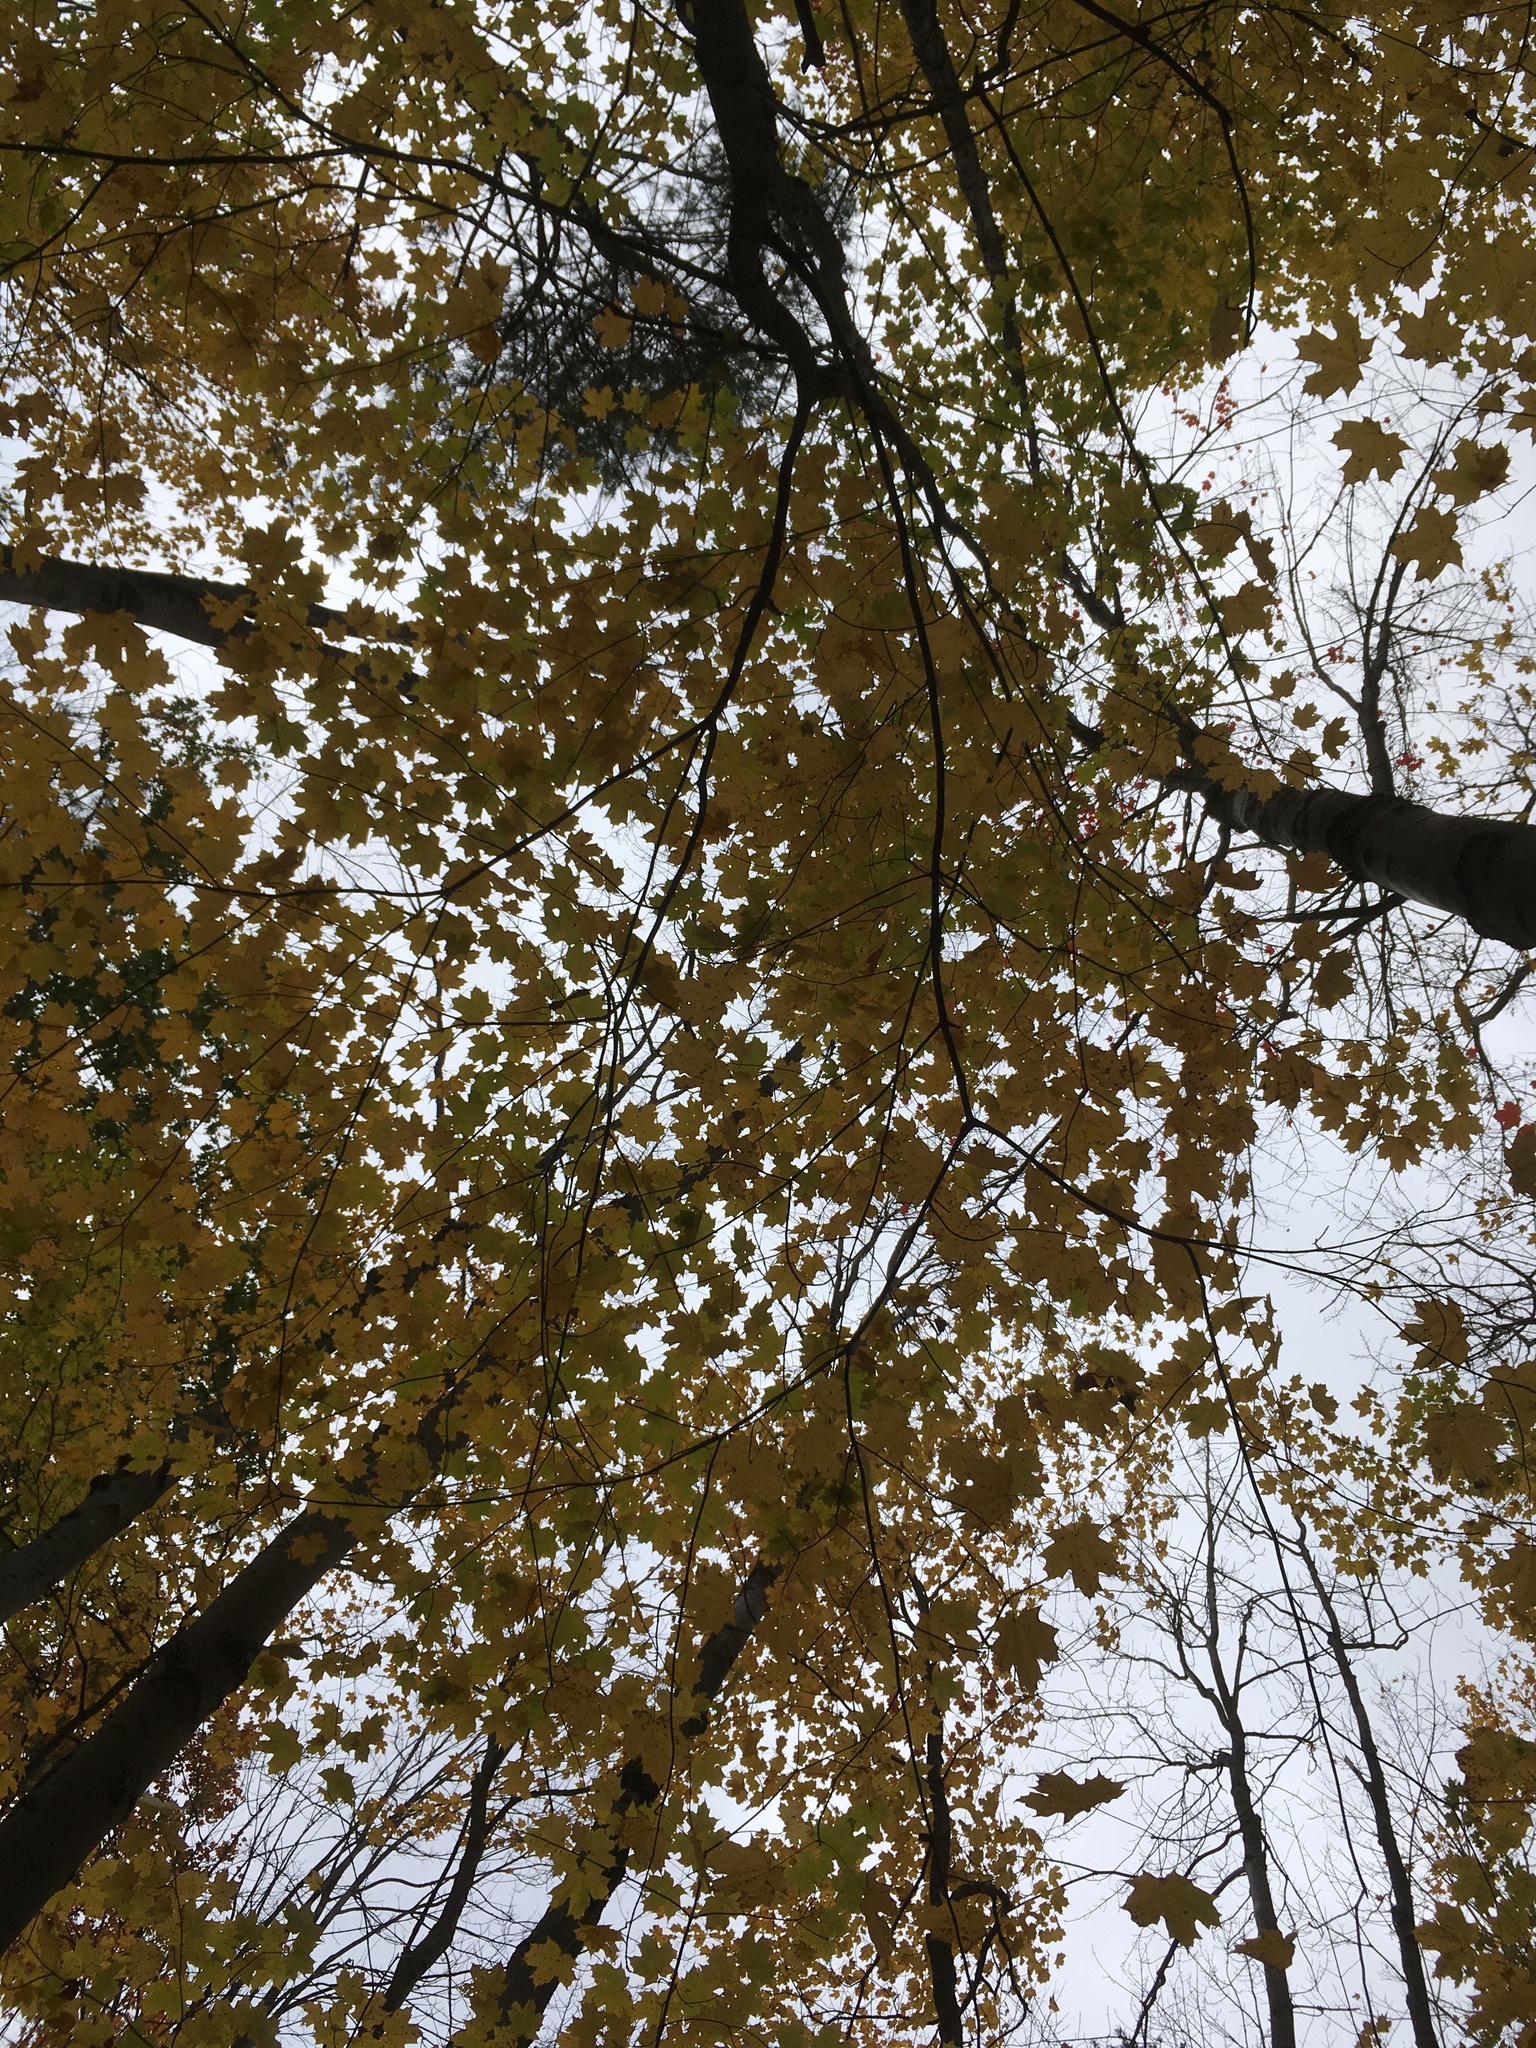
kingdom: Plantae
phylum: Tracheophyta
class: Magnoliopsida
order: Sapindales
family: Sapindaceae
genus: Acer
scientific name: Acer saccharum
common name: Sugar maple
